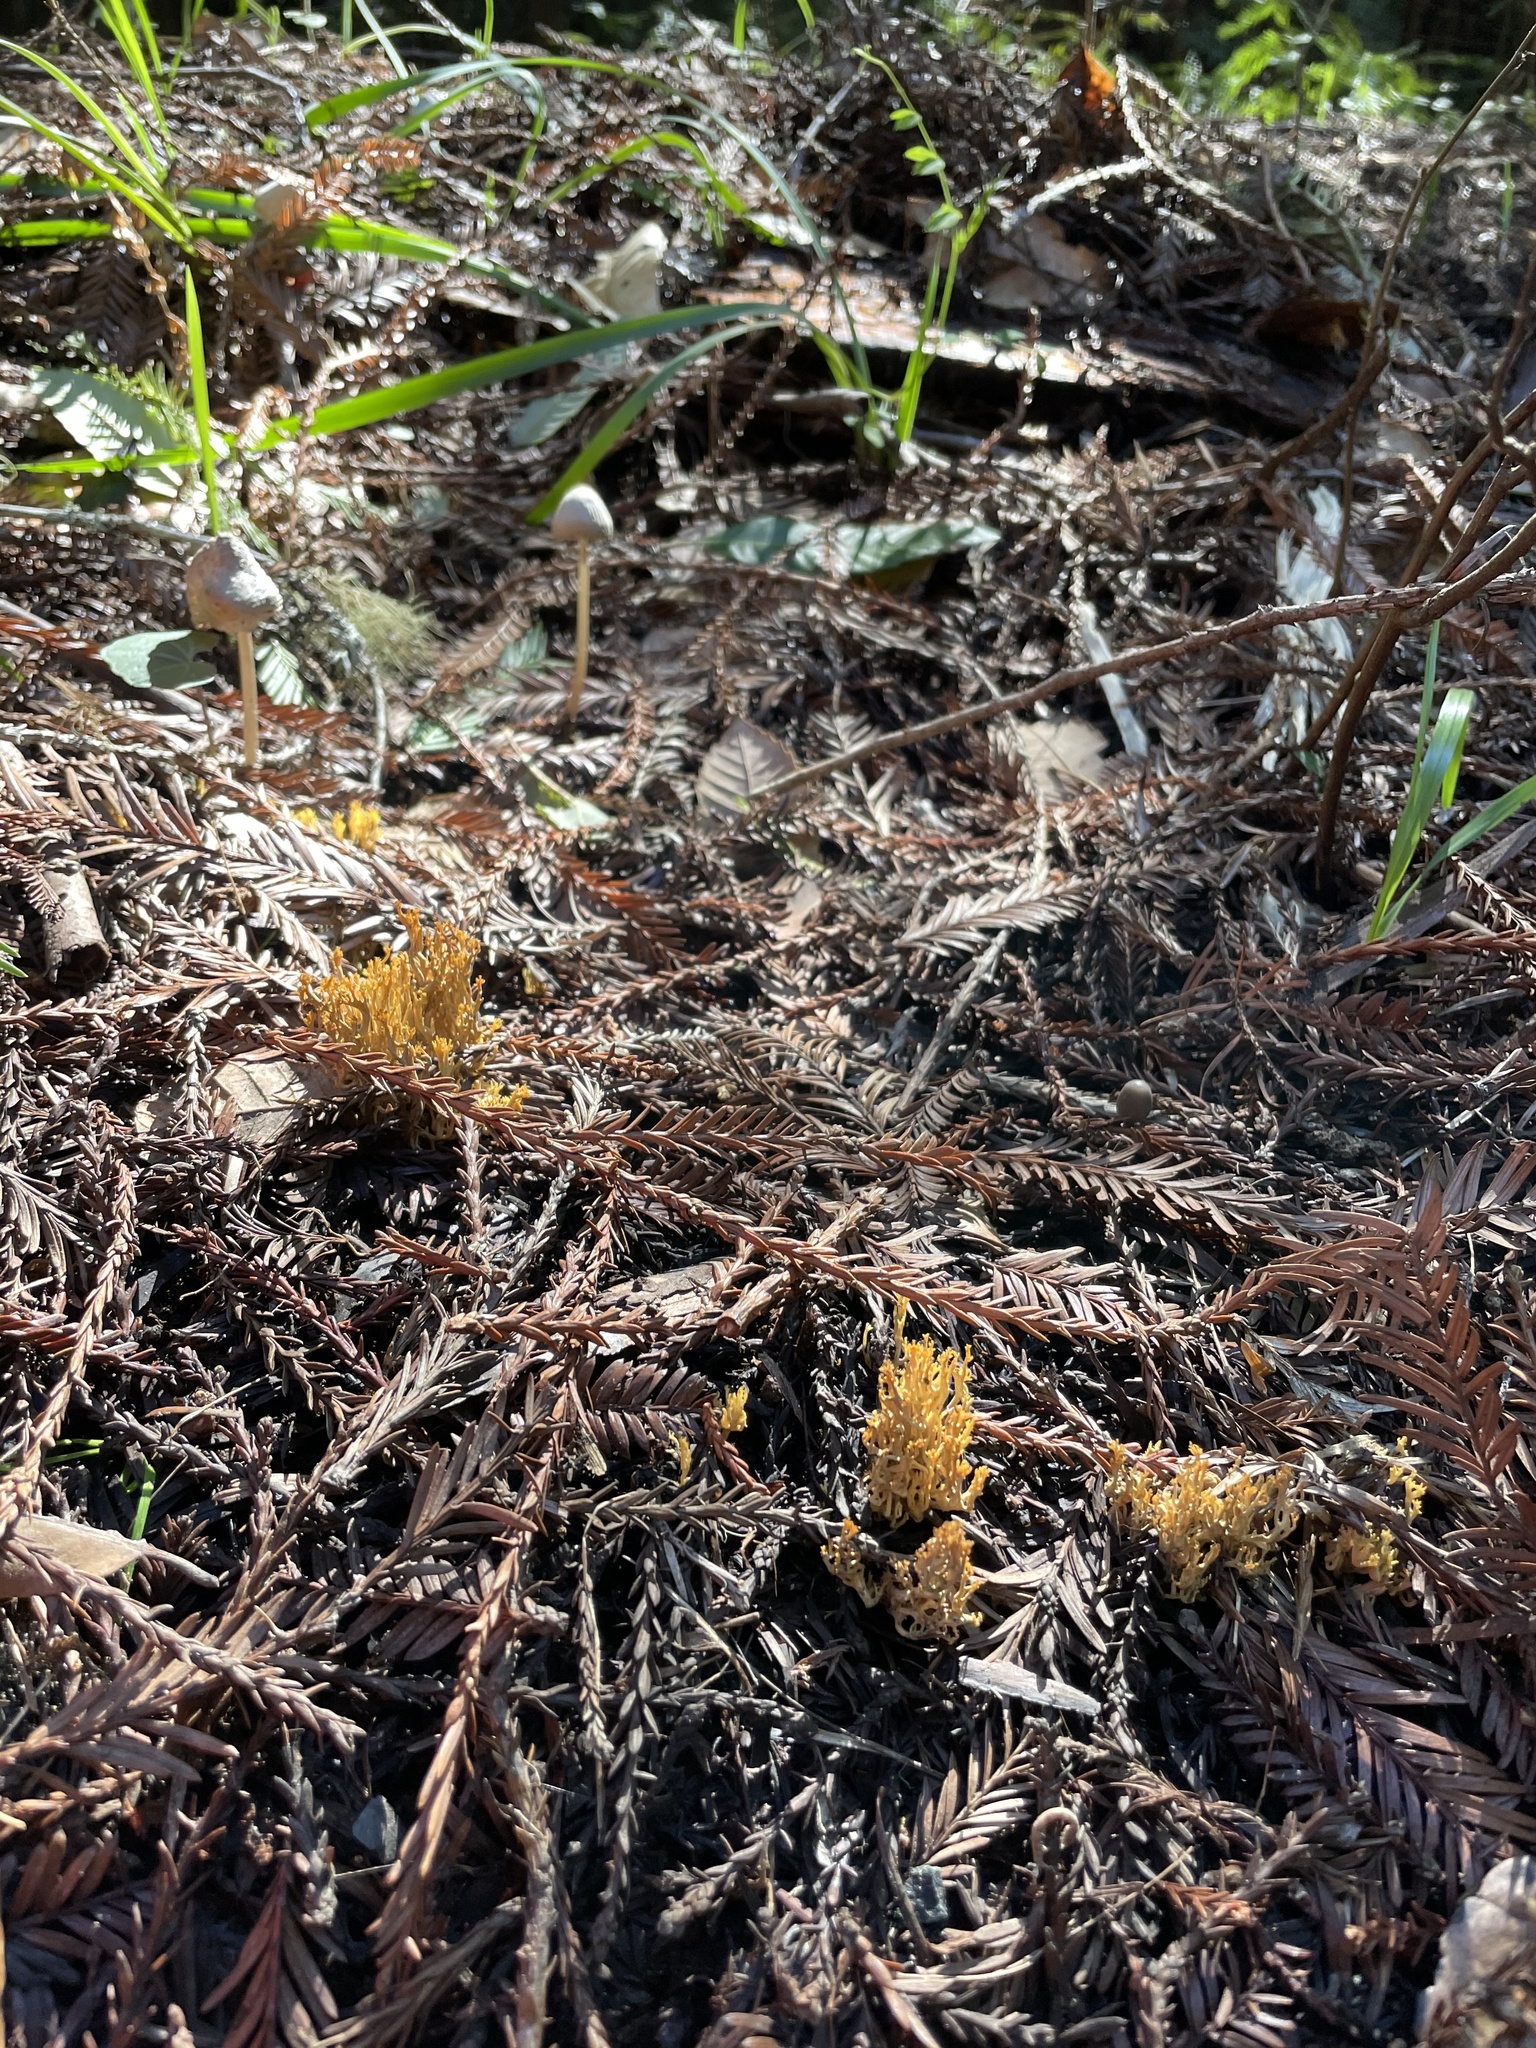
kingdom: Fungi
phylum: Basidiomycota
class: Agaricomycetes
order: Gomphales
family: Gomphaceae
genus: Phaeoclavulina
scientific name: Phaeoclavulina myceliosa
